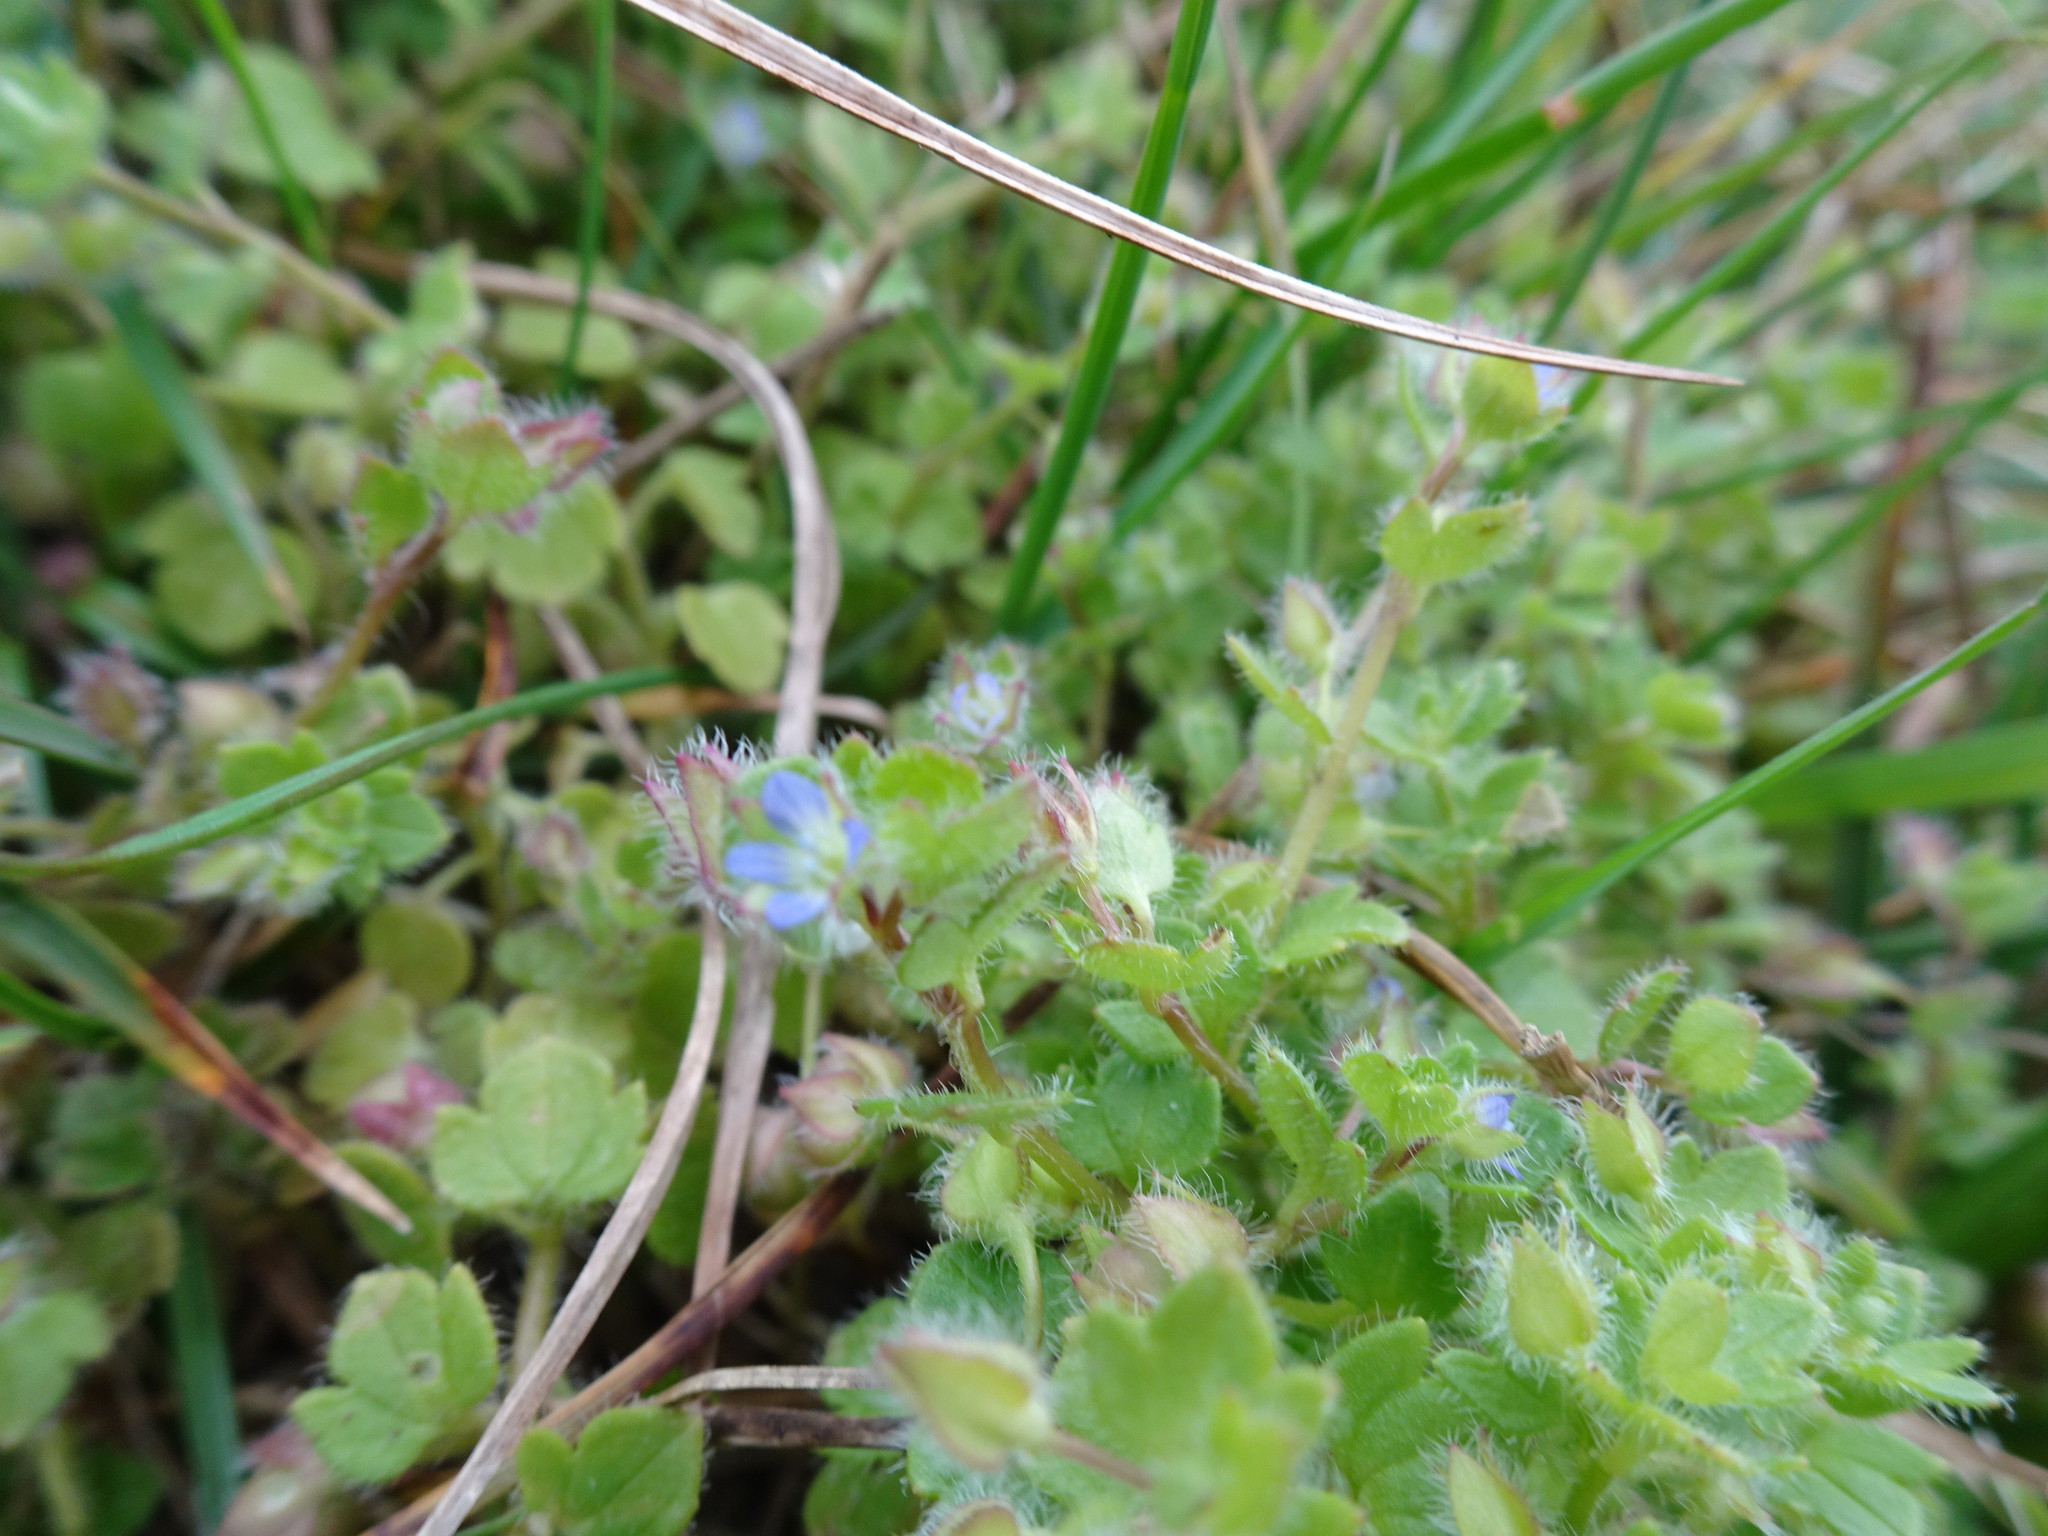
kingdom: Plantae
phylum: Tracheophyta
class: Magnoliopsida
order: Lamiales
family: Plantaginaceae
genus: Veronica
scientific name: Veronica hederifolia
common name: Ivy-leaved speedwell
